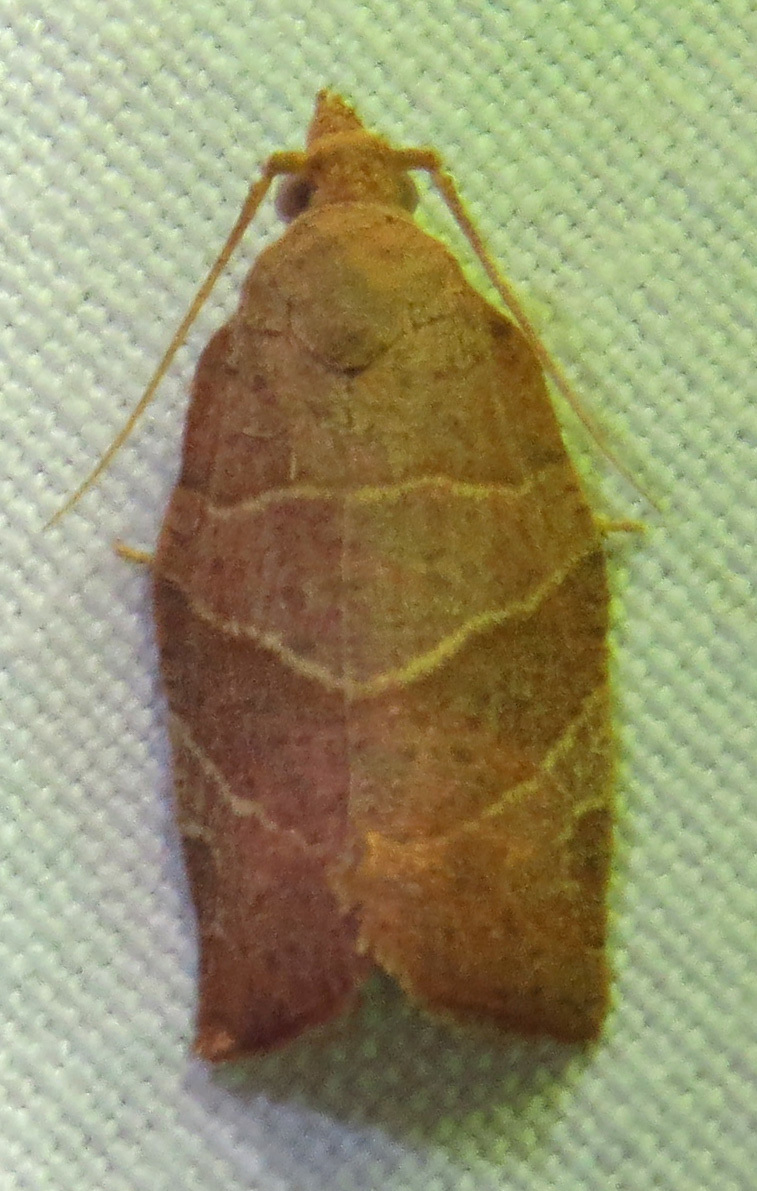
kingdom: Animalia
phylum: Arthropoda
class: Insecta
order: Lepidoptera
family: Tortricidae
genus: Pandemis
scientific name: Pandemis limitata
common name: Three-lined leafroller moth
